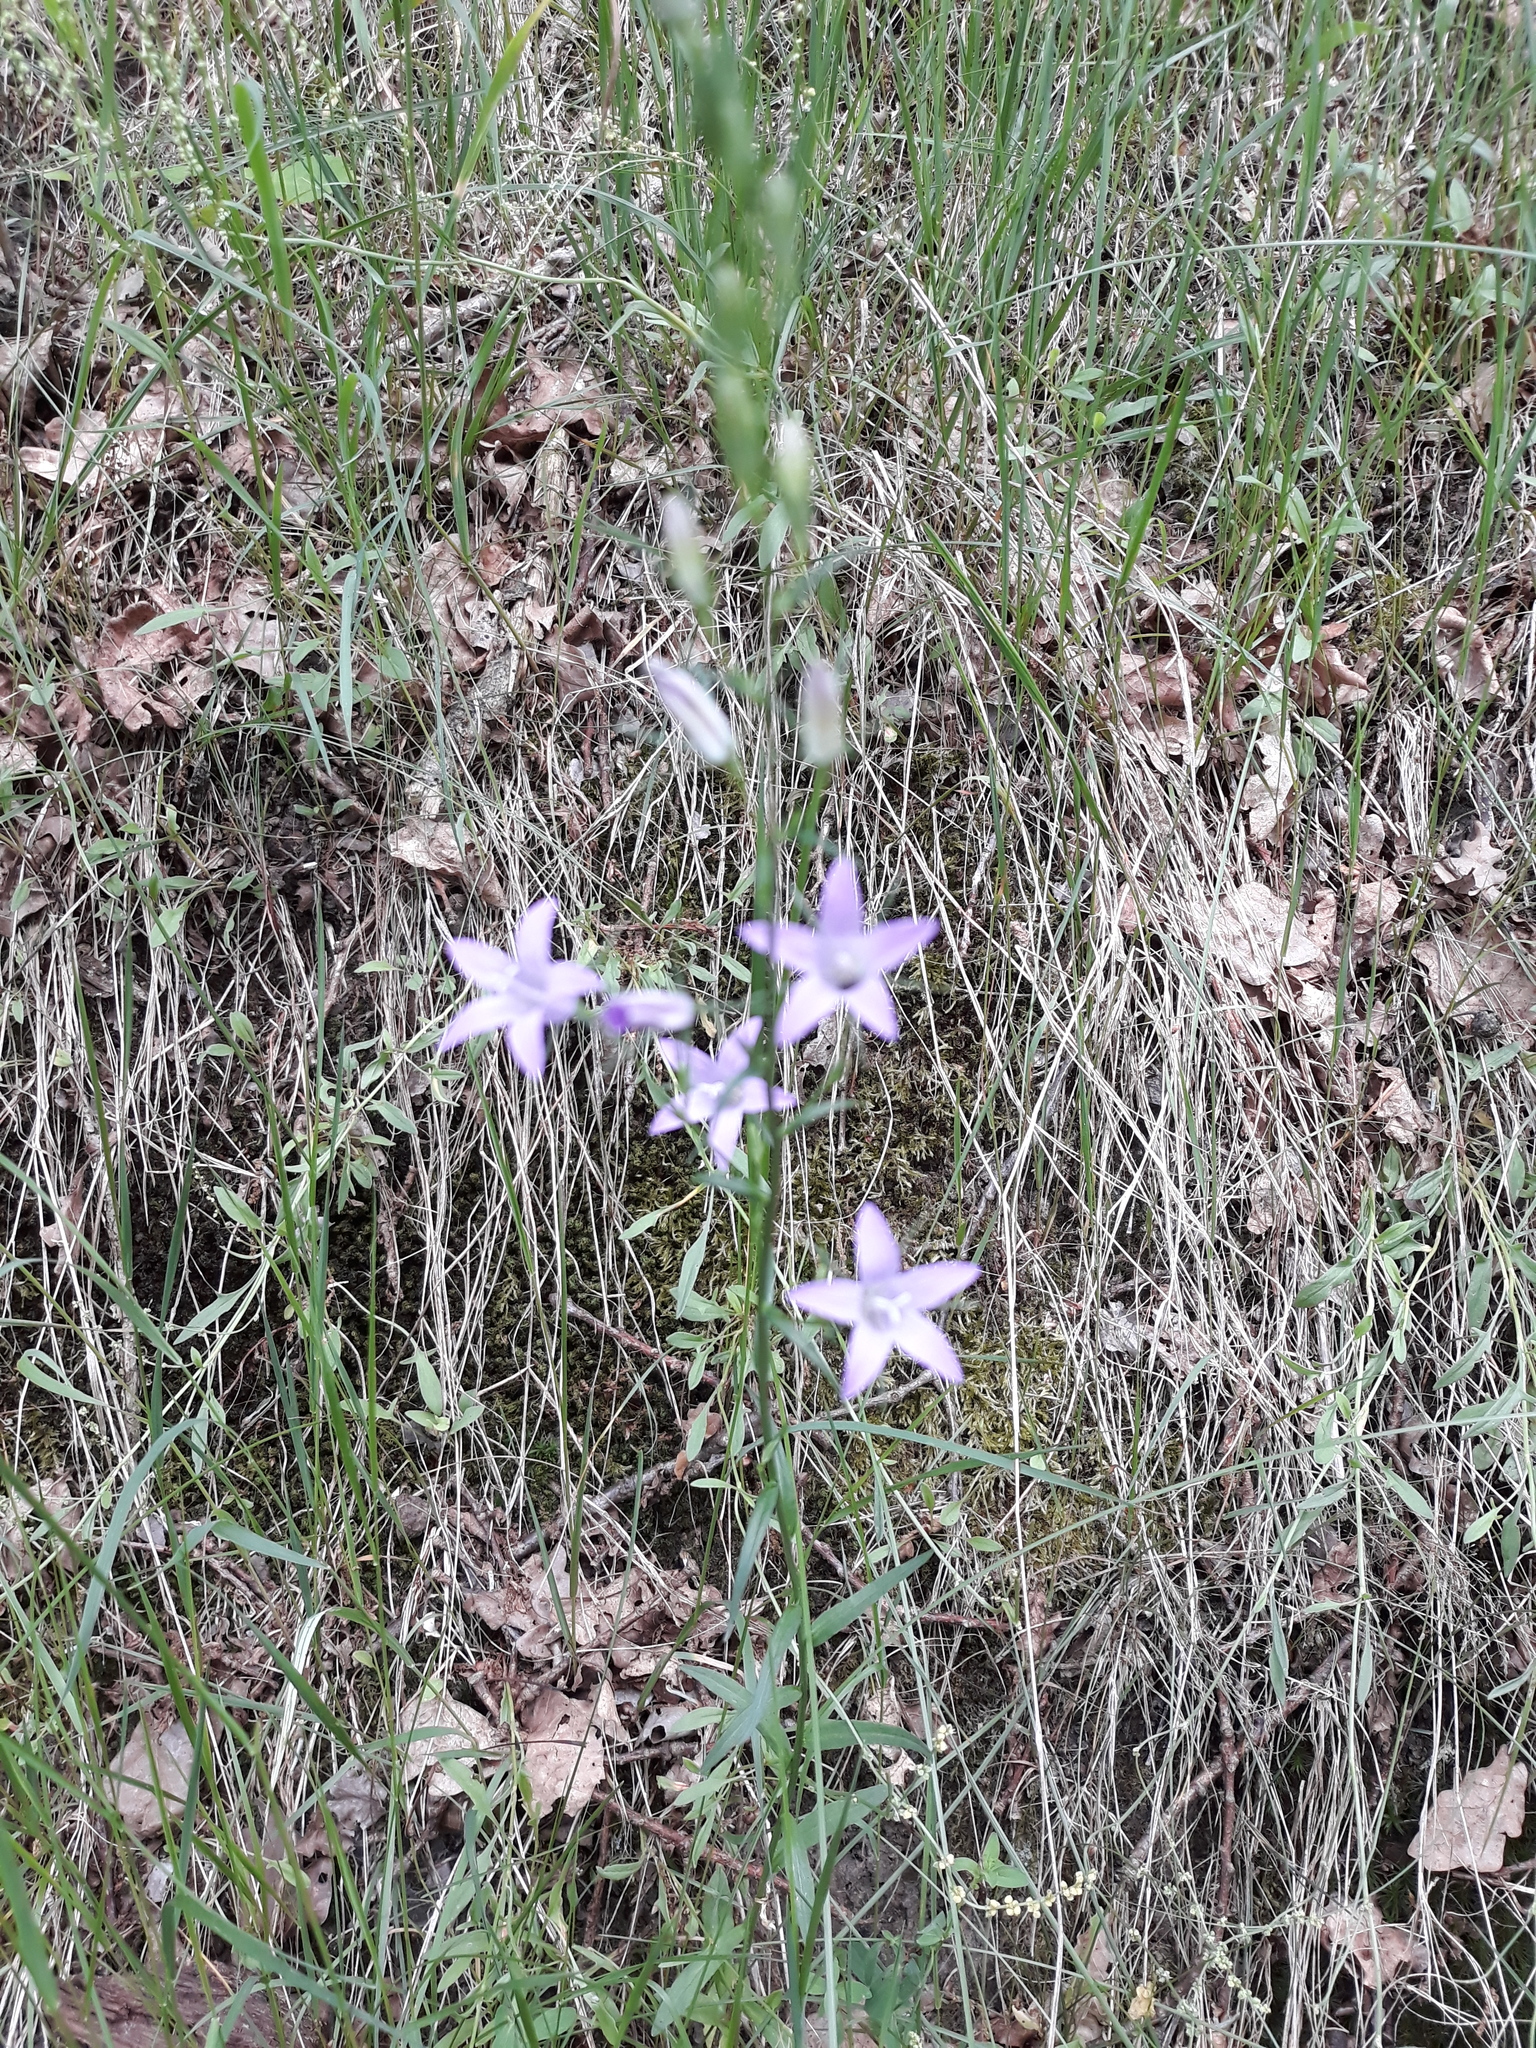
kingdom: Plantae
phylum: Tracheophyta
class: Magnoliopsida
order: Asterales
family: Campanulaceae
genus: Campanula
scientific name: Campanula rapunculus
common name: Rampion bellflower
